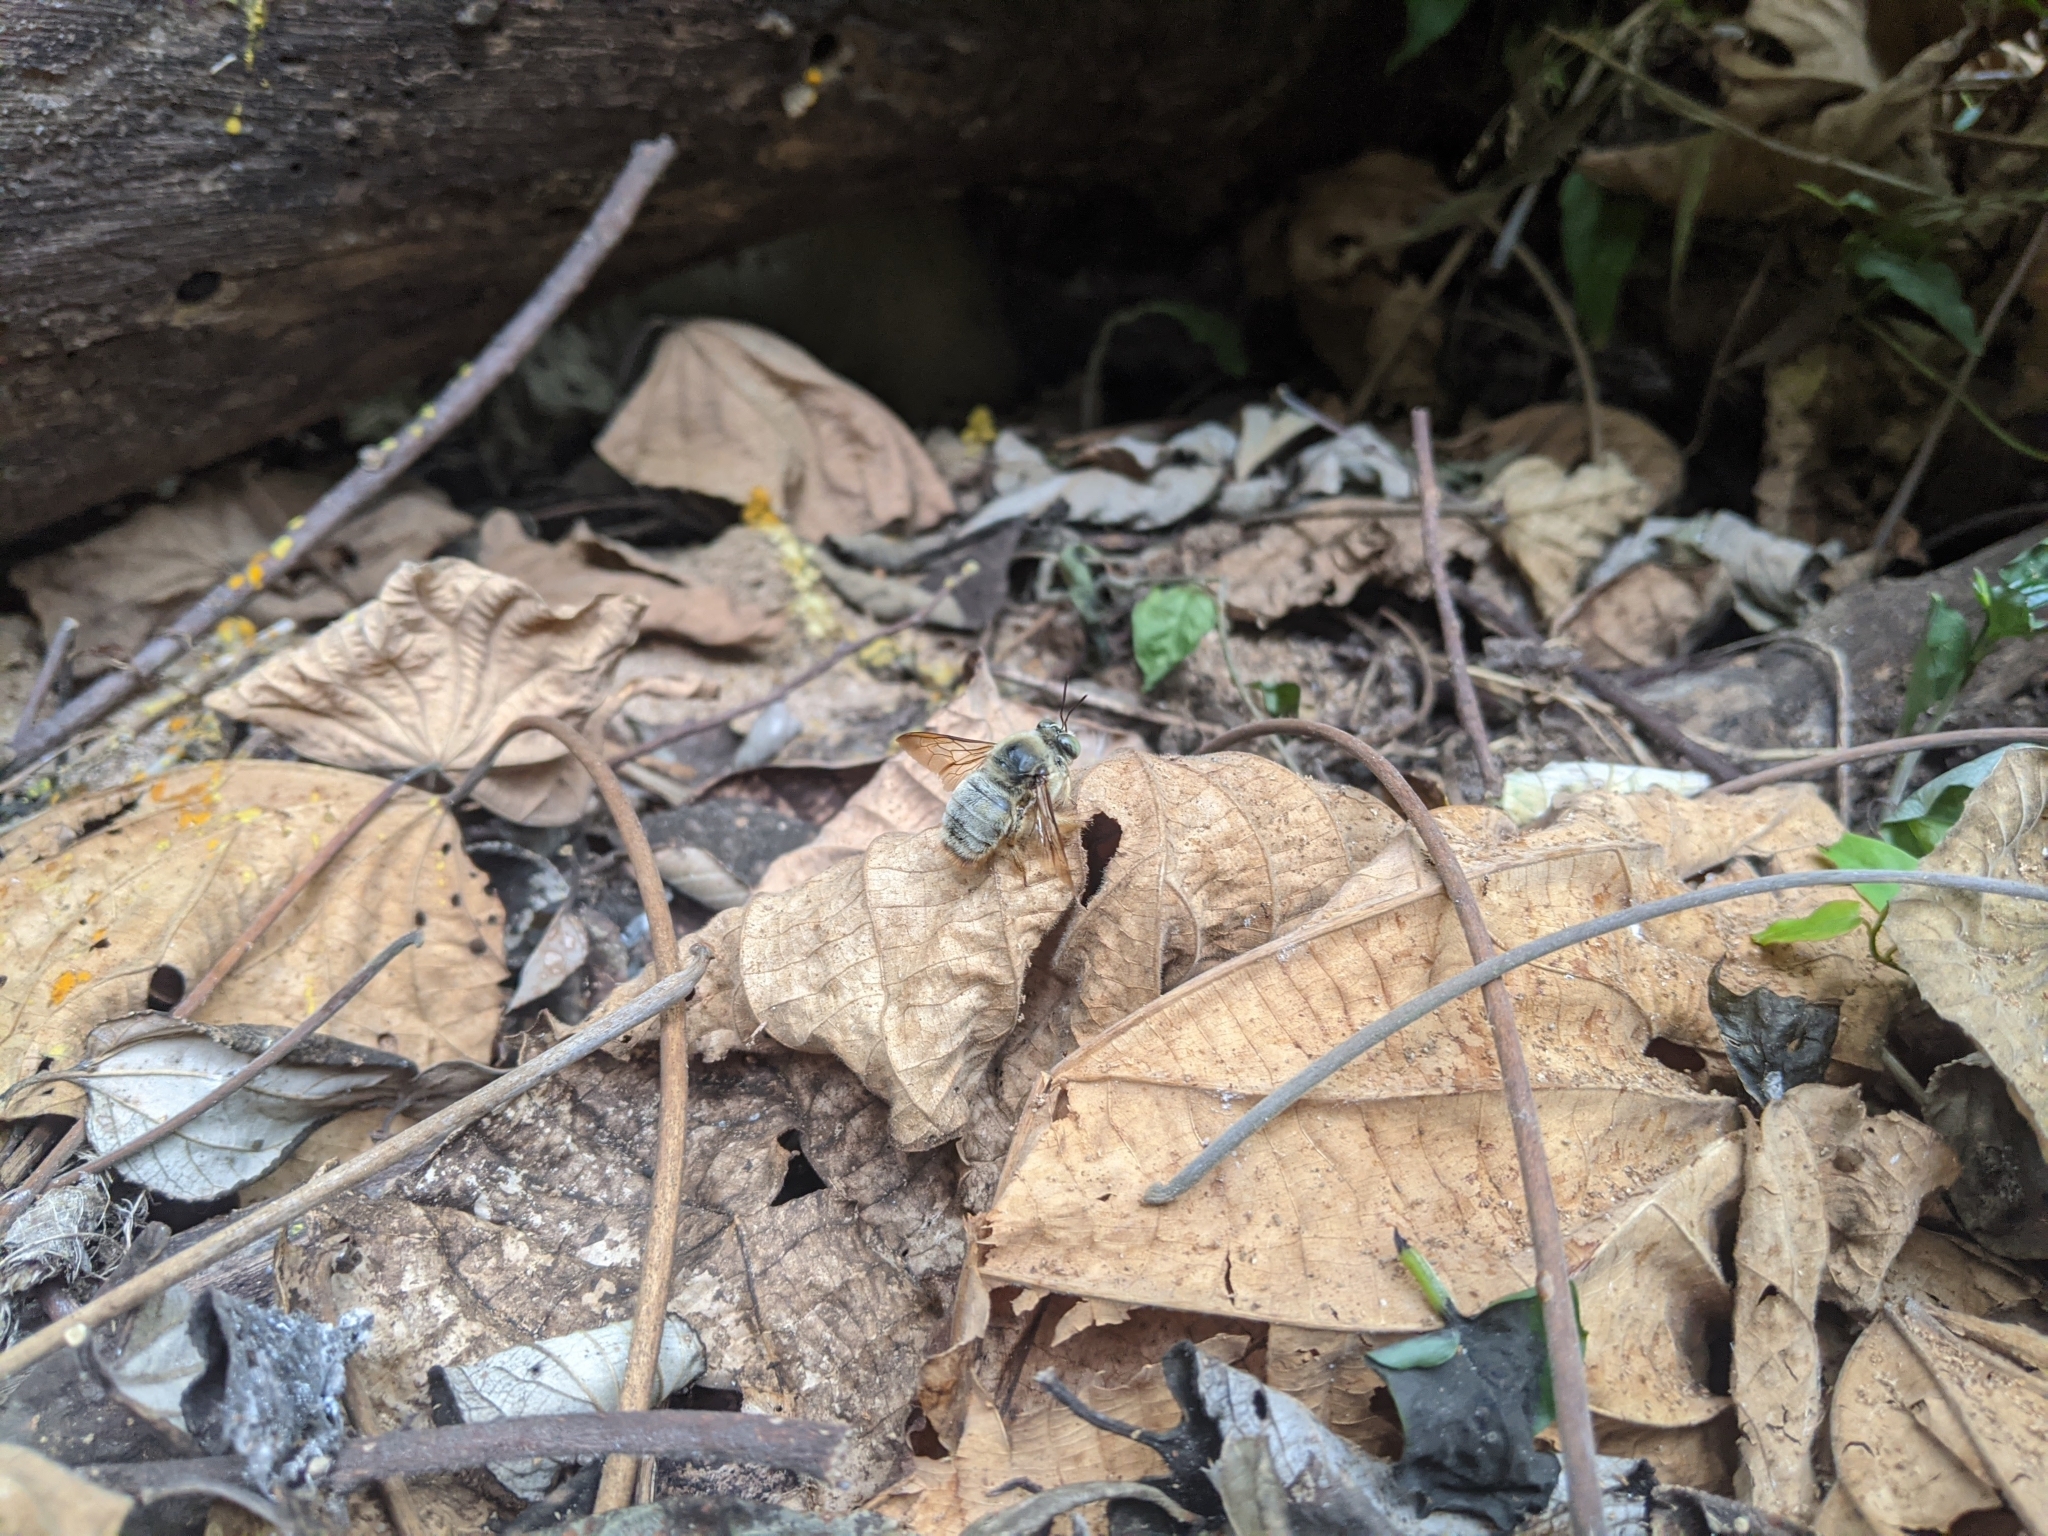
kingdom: Animalia
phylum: Arthropoda
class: Insecta
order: Hymenoptera
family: Apidae
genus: Xylocopa
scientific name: Xylocopa dejeanii
